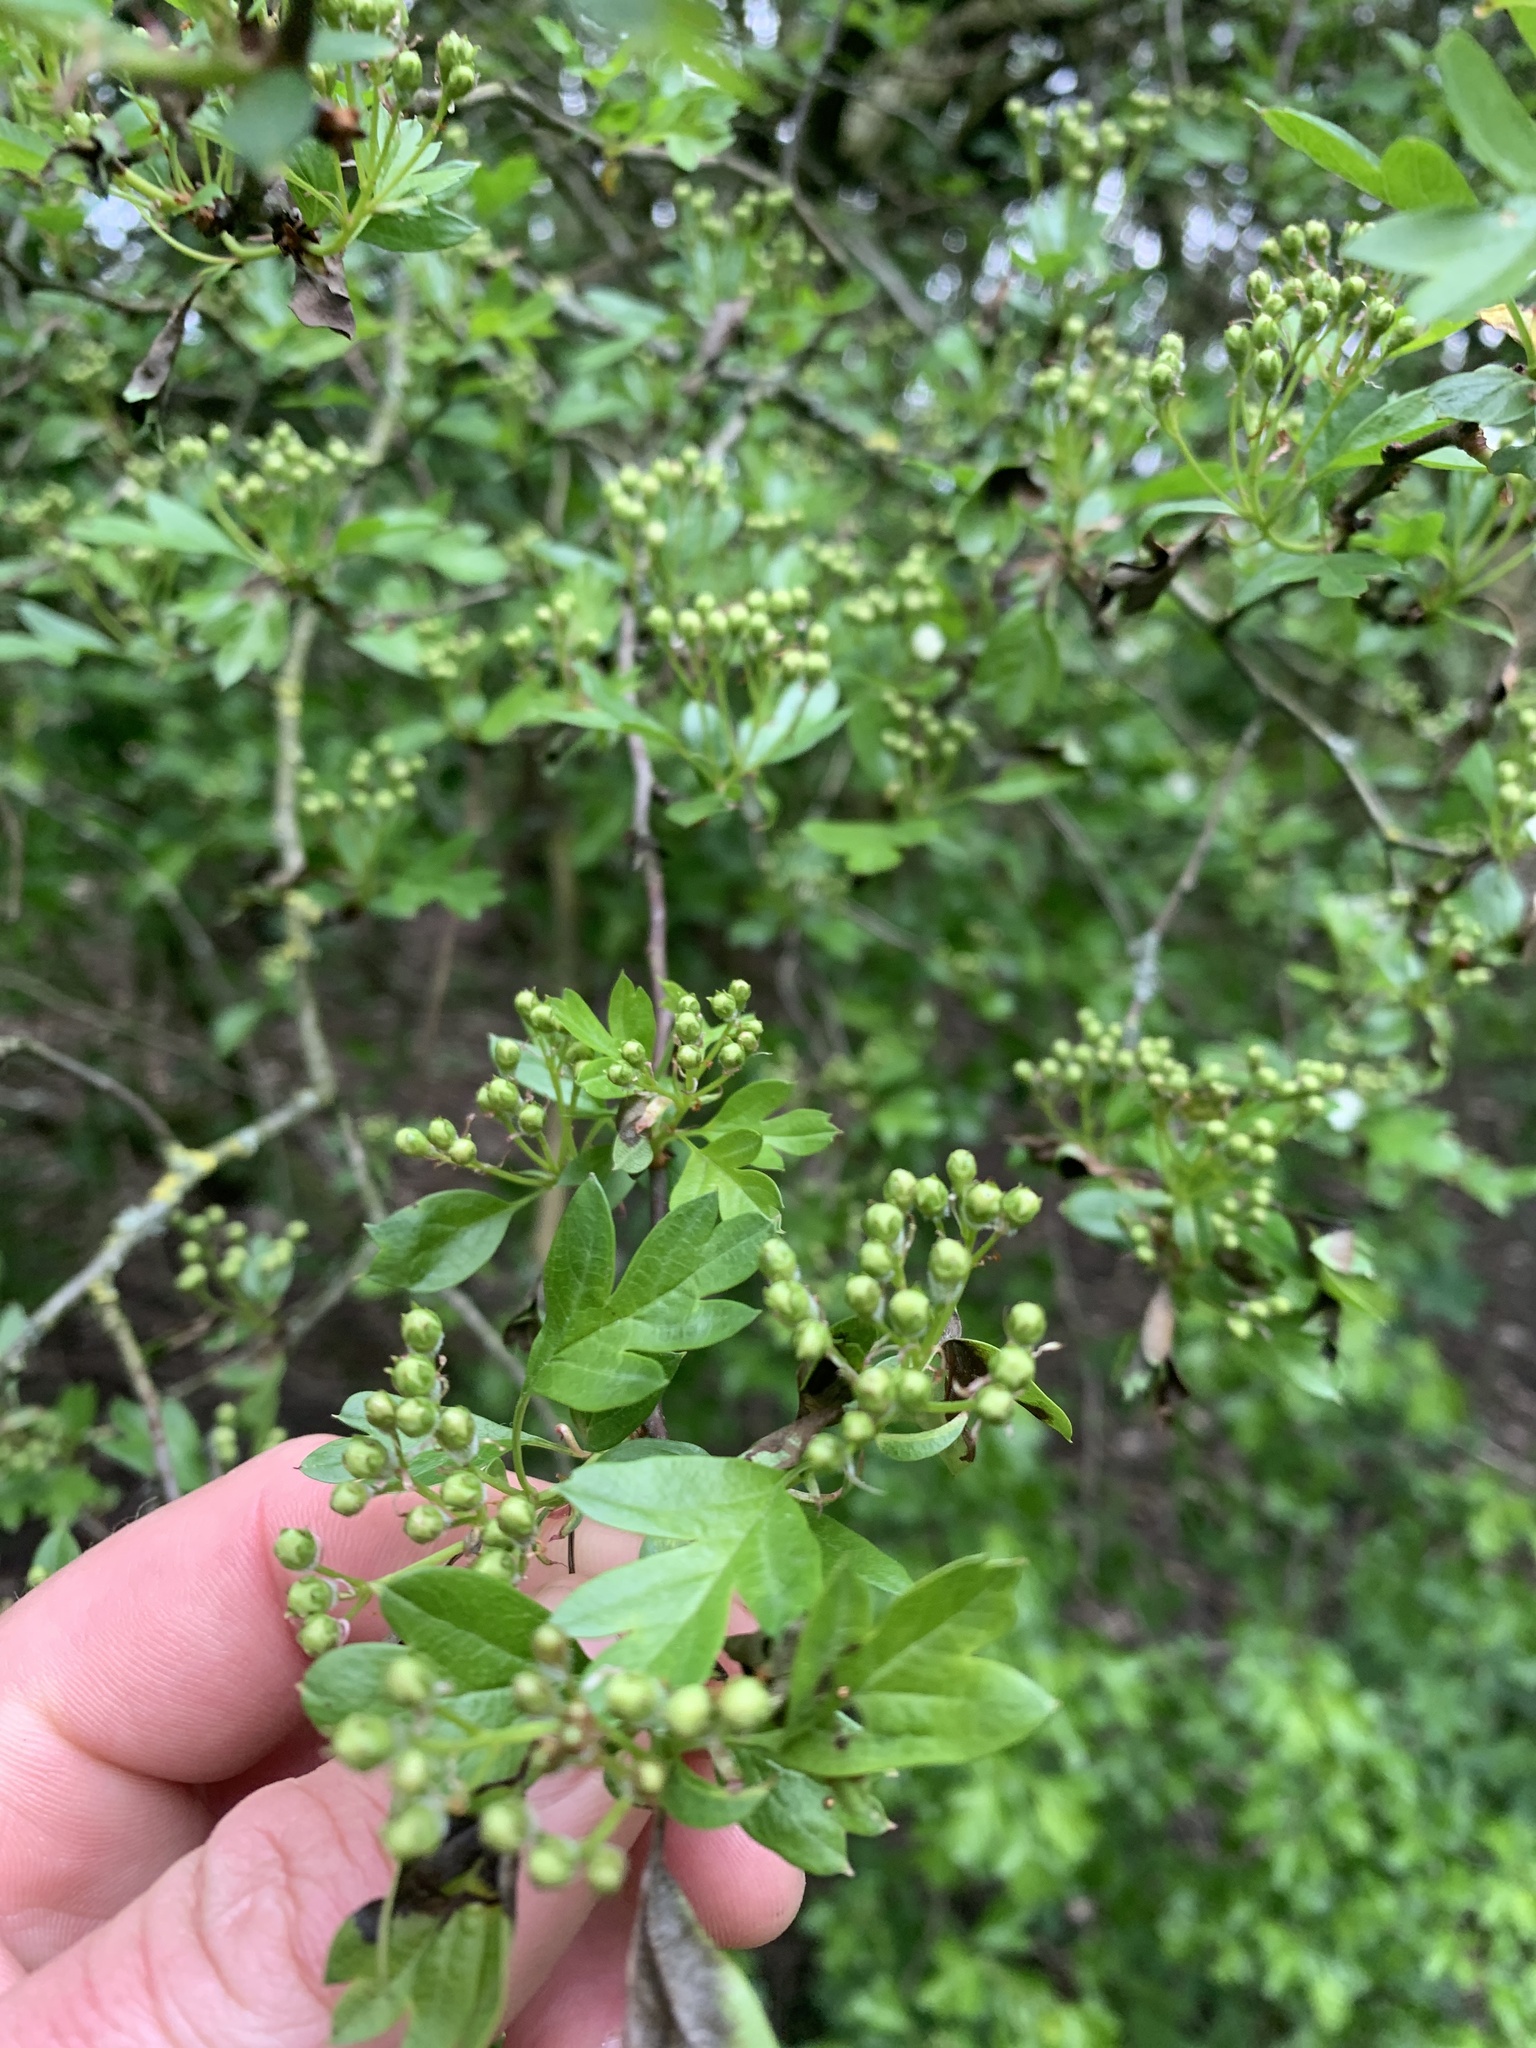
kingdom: Plantae
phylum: Tracheophyta
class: Magnoliopsida
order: Rosales
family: Rosaceae
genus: Crataegus
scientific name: Crataegus monogyna
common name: Hawthorn
